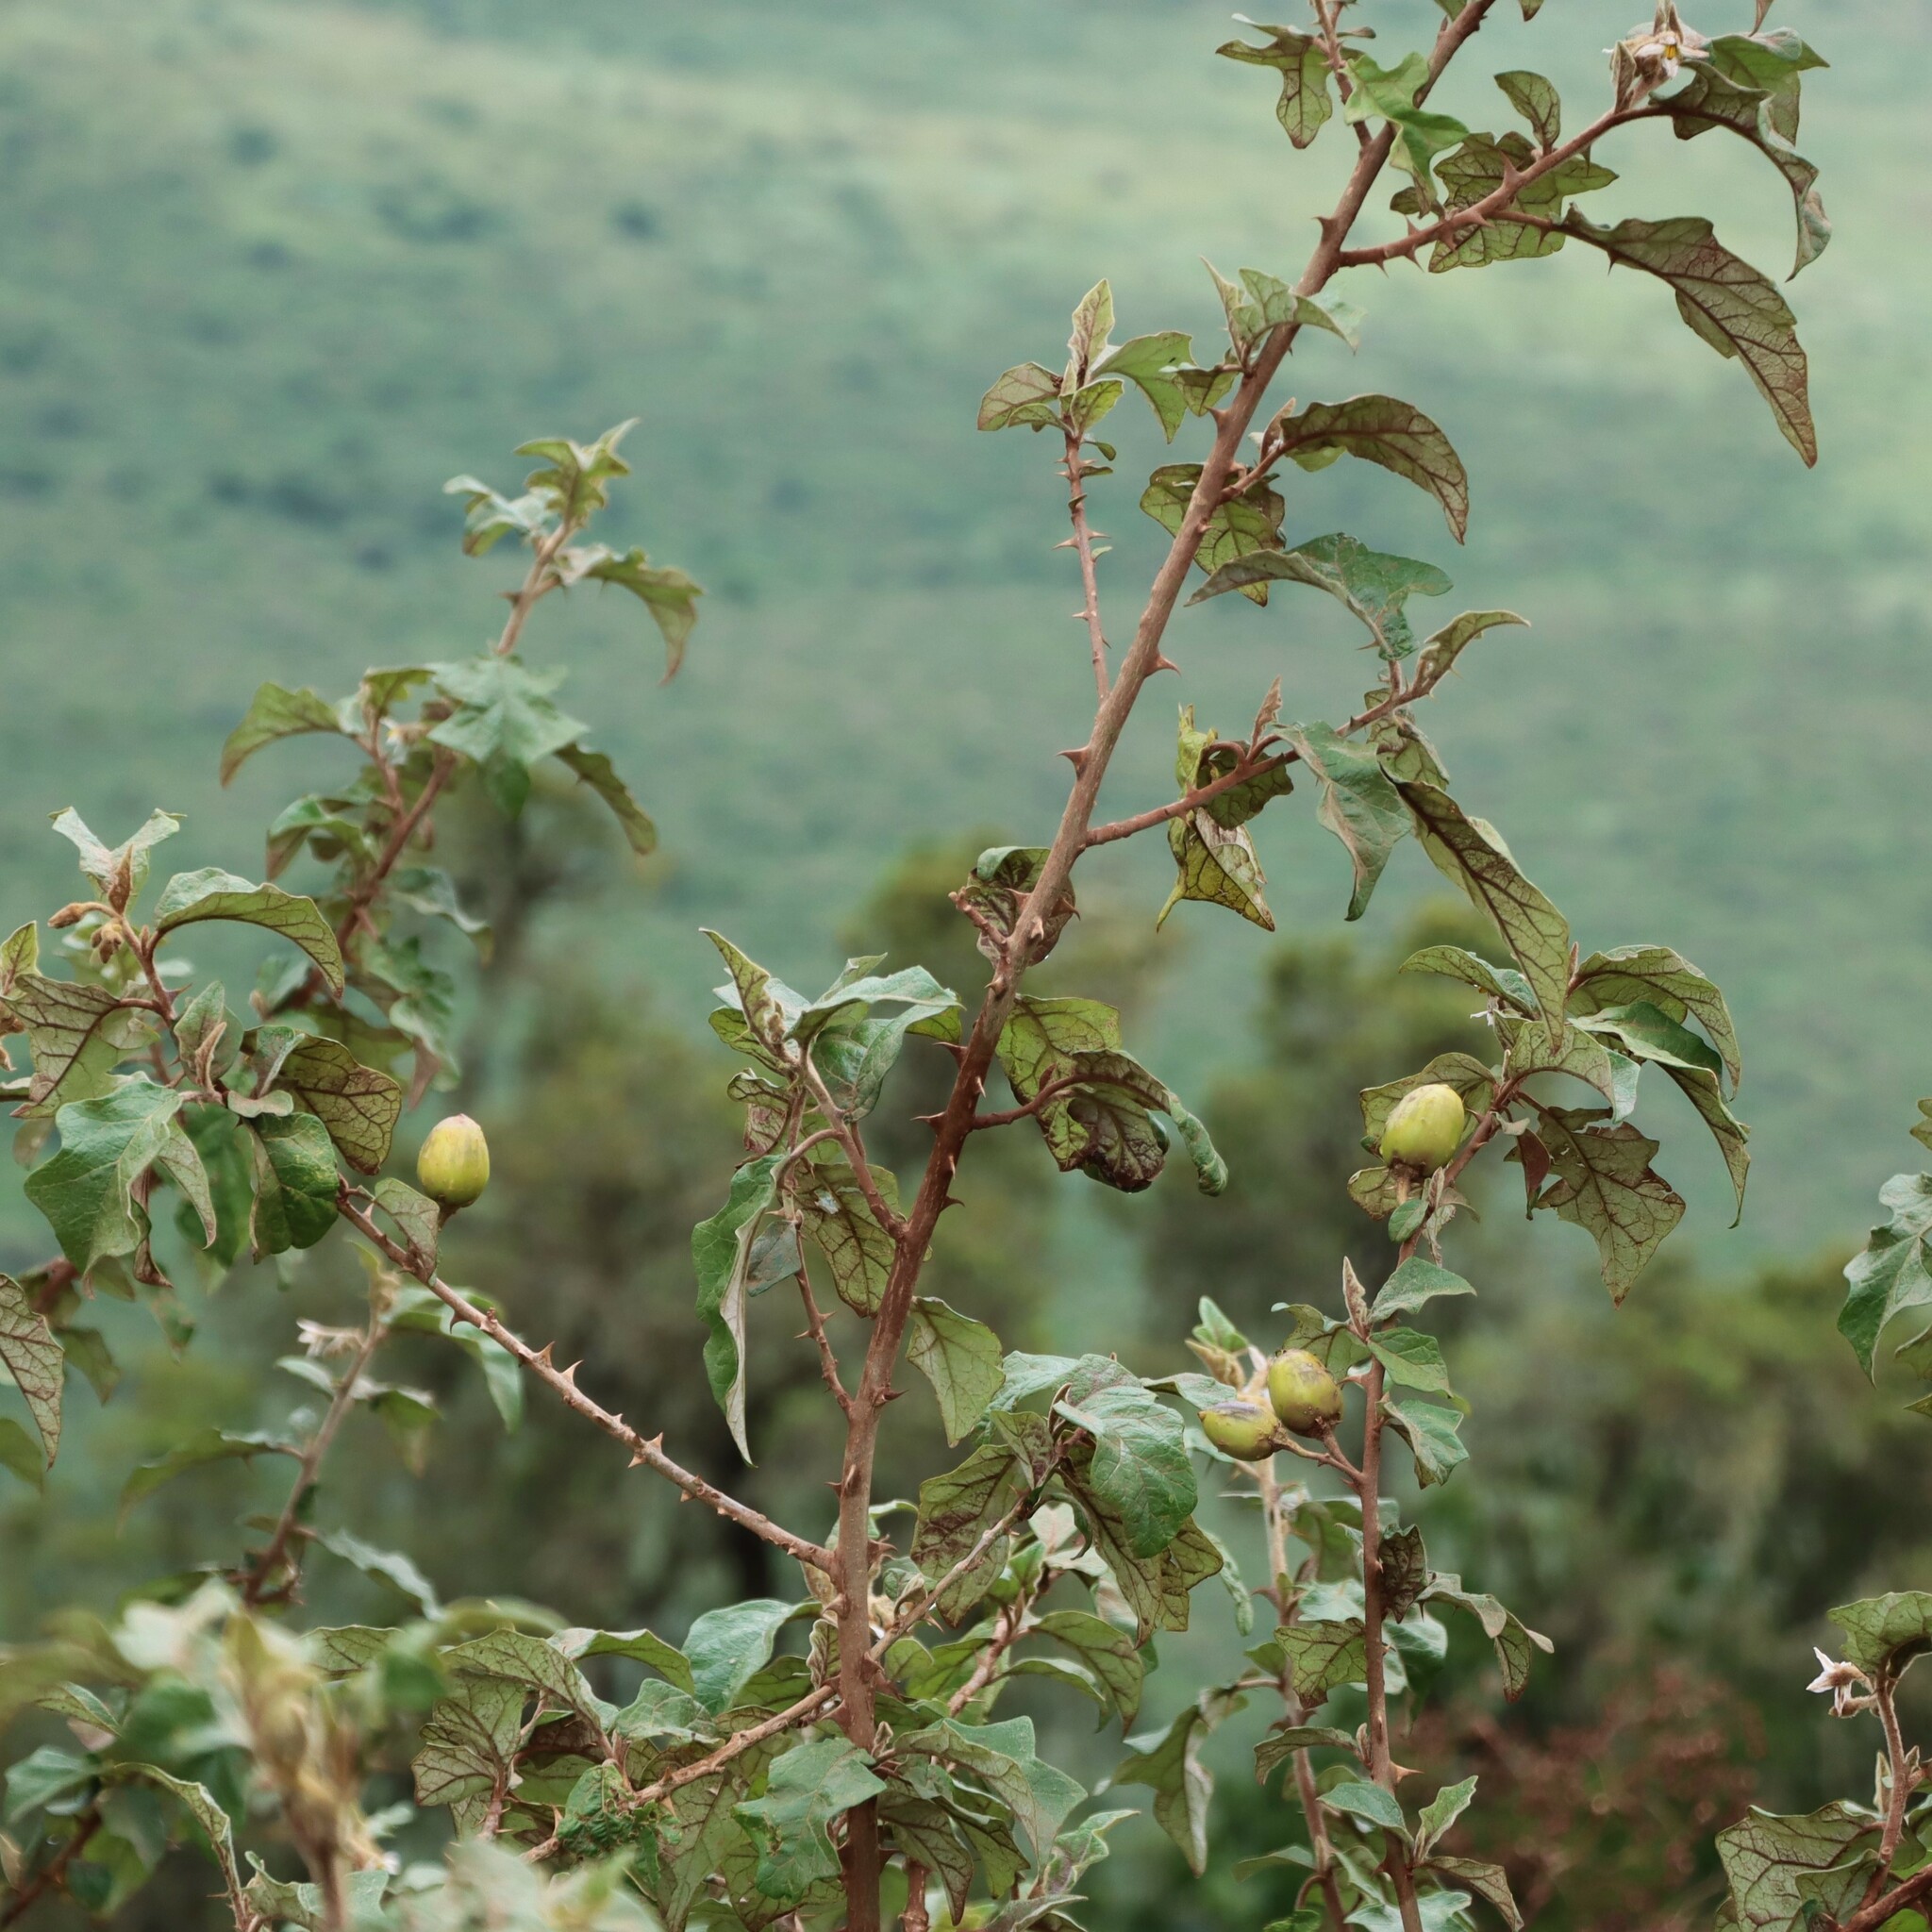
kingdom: Plantae
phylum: Tracheophyta
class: Magnoliopsida
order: Solanales
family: Solanaceae
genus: Solanum
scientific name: Solanum aculeastrum
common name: Goat bitter-apple
